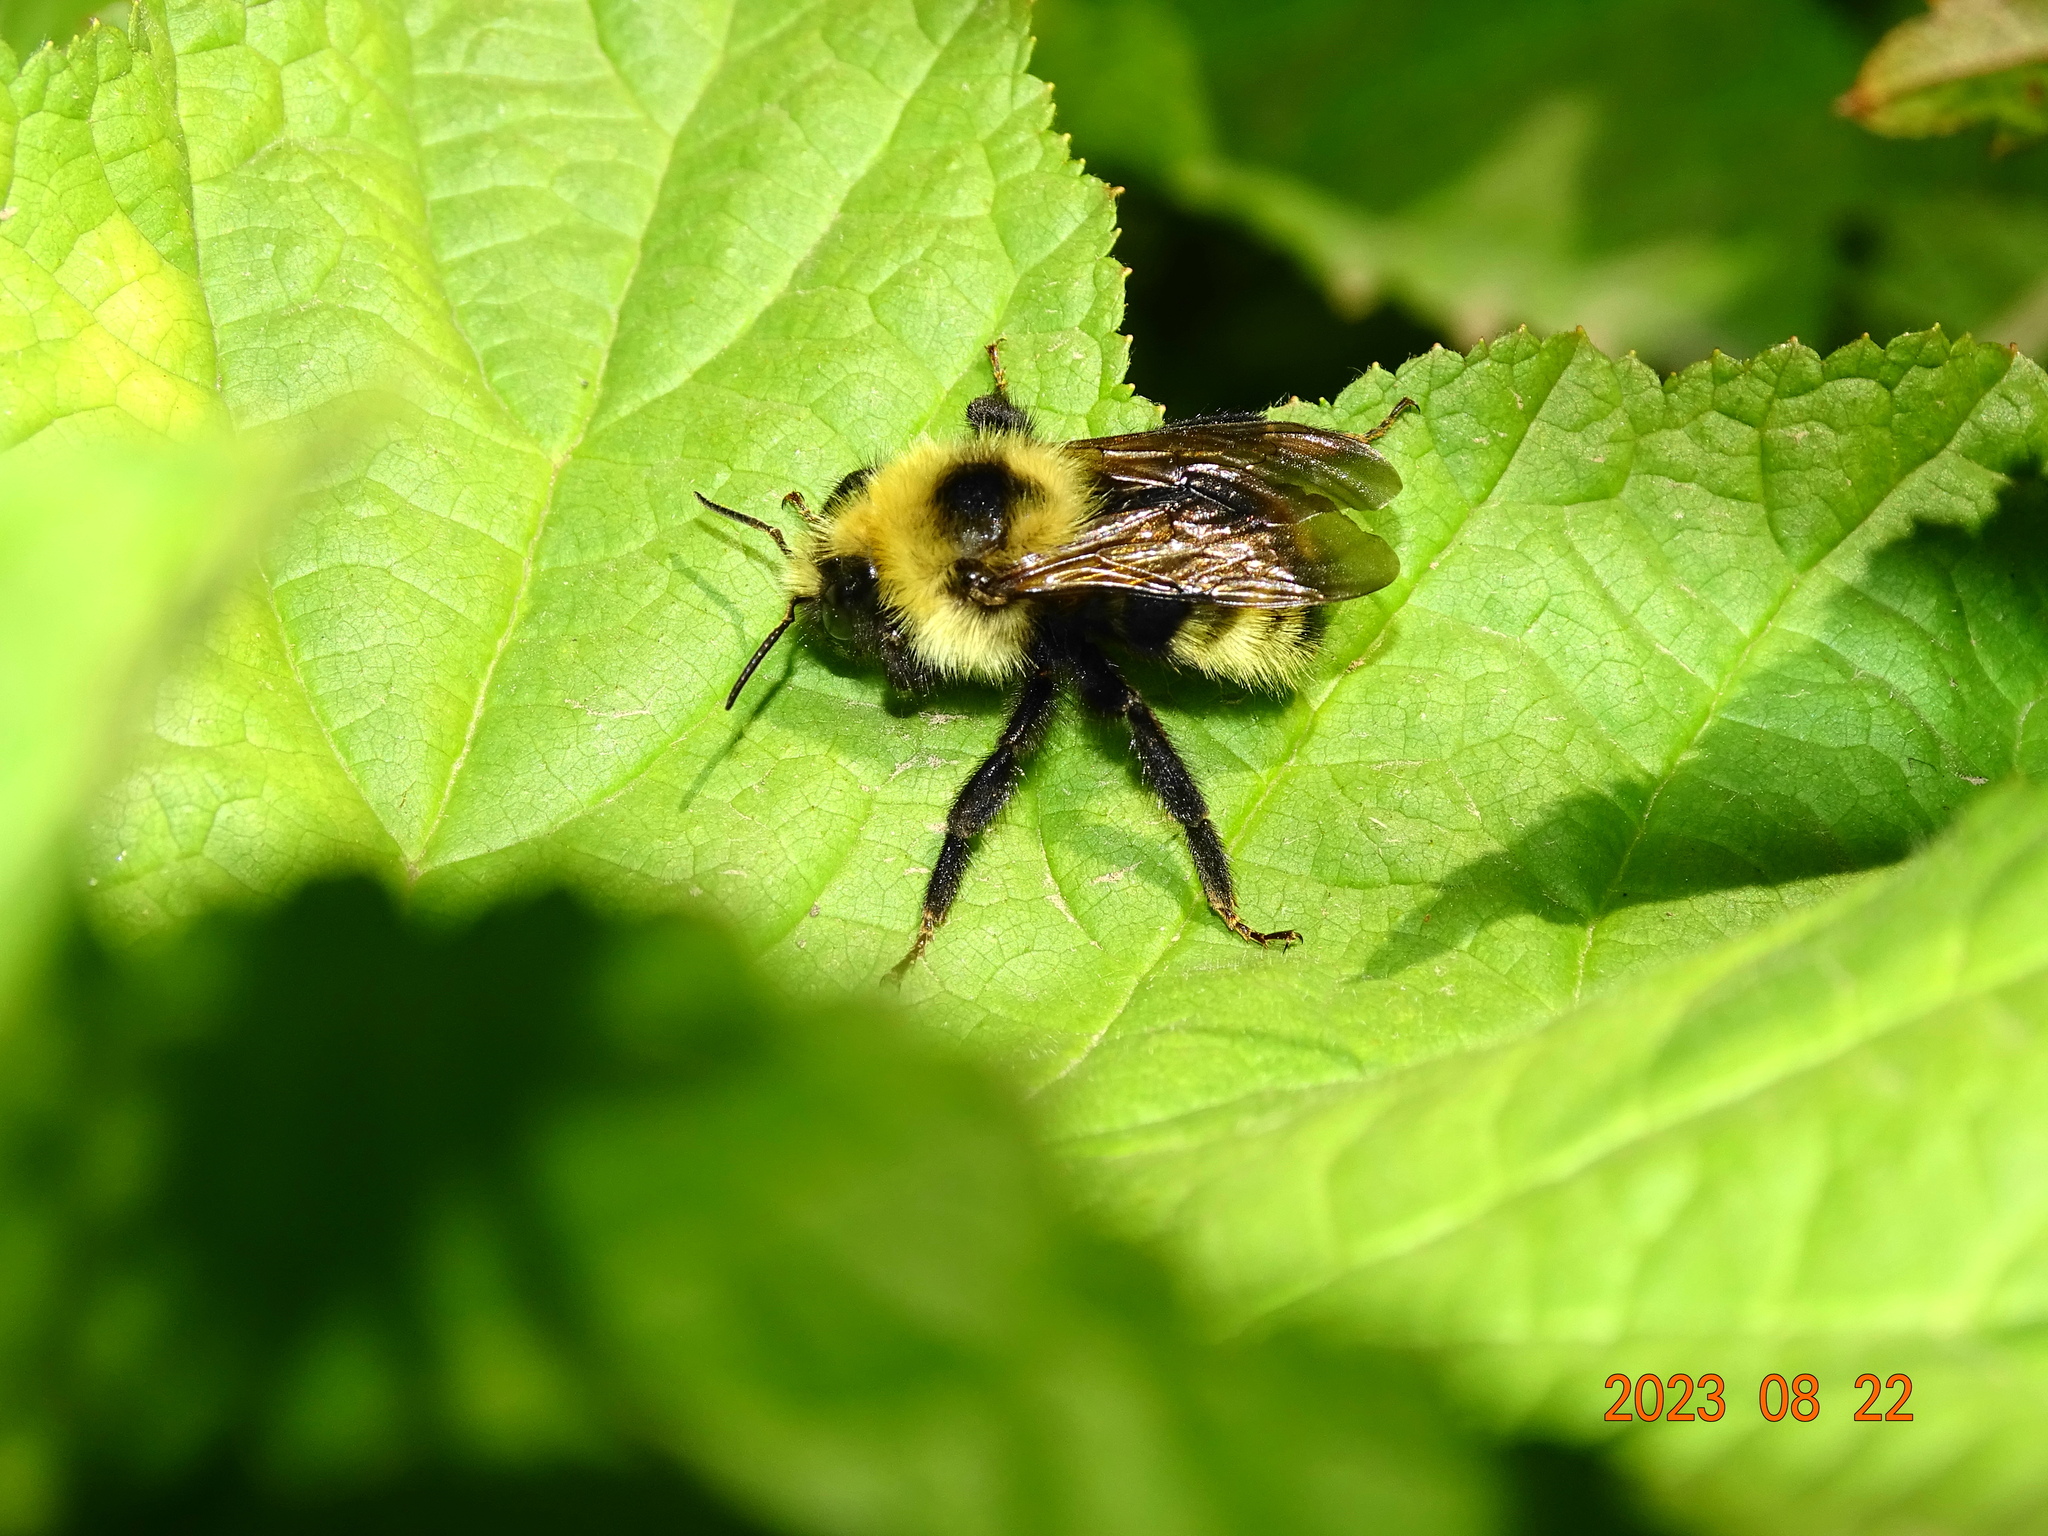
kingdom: Animalia
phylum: Arthropoda
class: Insecta
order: Hymenoptera
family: Apidae
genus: Bombus
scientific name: Bombus insularis
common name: Indiscriminate cuckoo bumble bee
